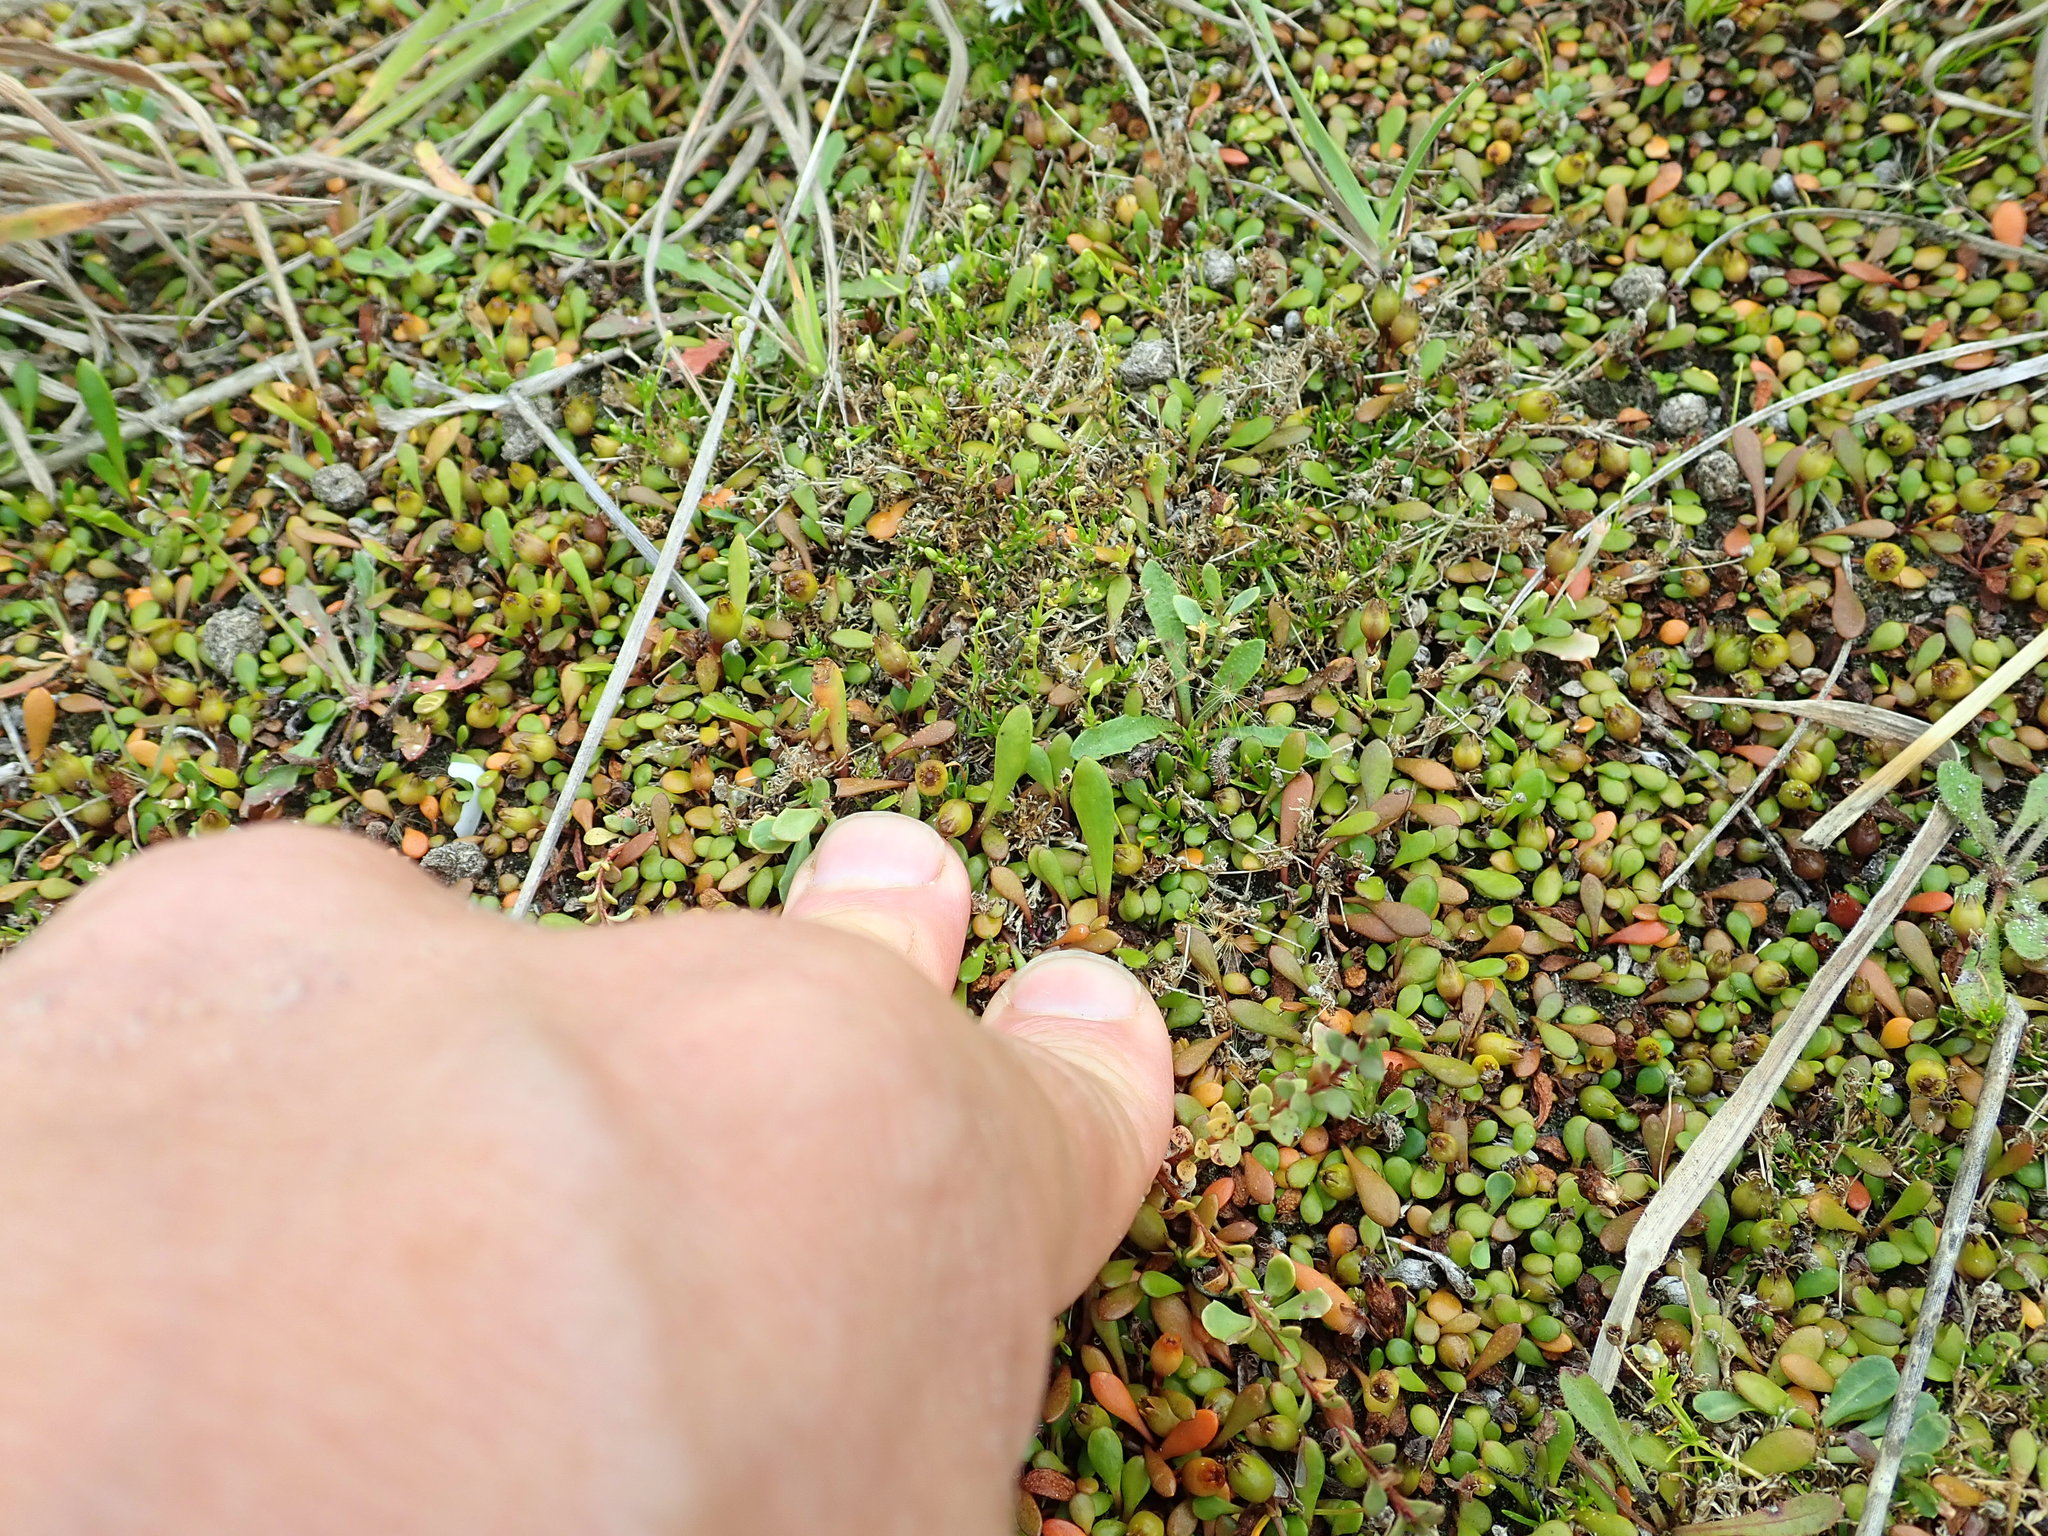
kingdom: Plantae
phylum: Tracheophyta
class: Magnoliopsida
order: Caryophyllales
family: Caryophyllaceae
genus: Sagina
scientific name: Sagina procumbens
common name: Procumbent pearlwort
